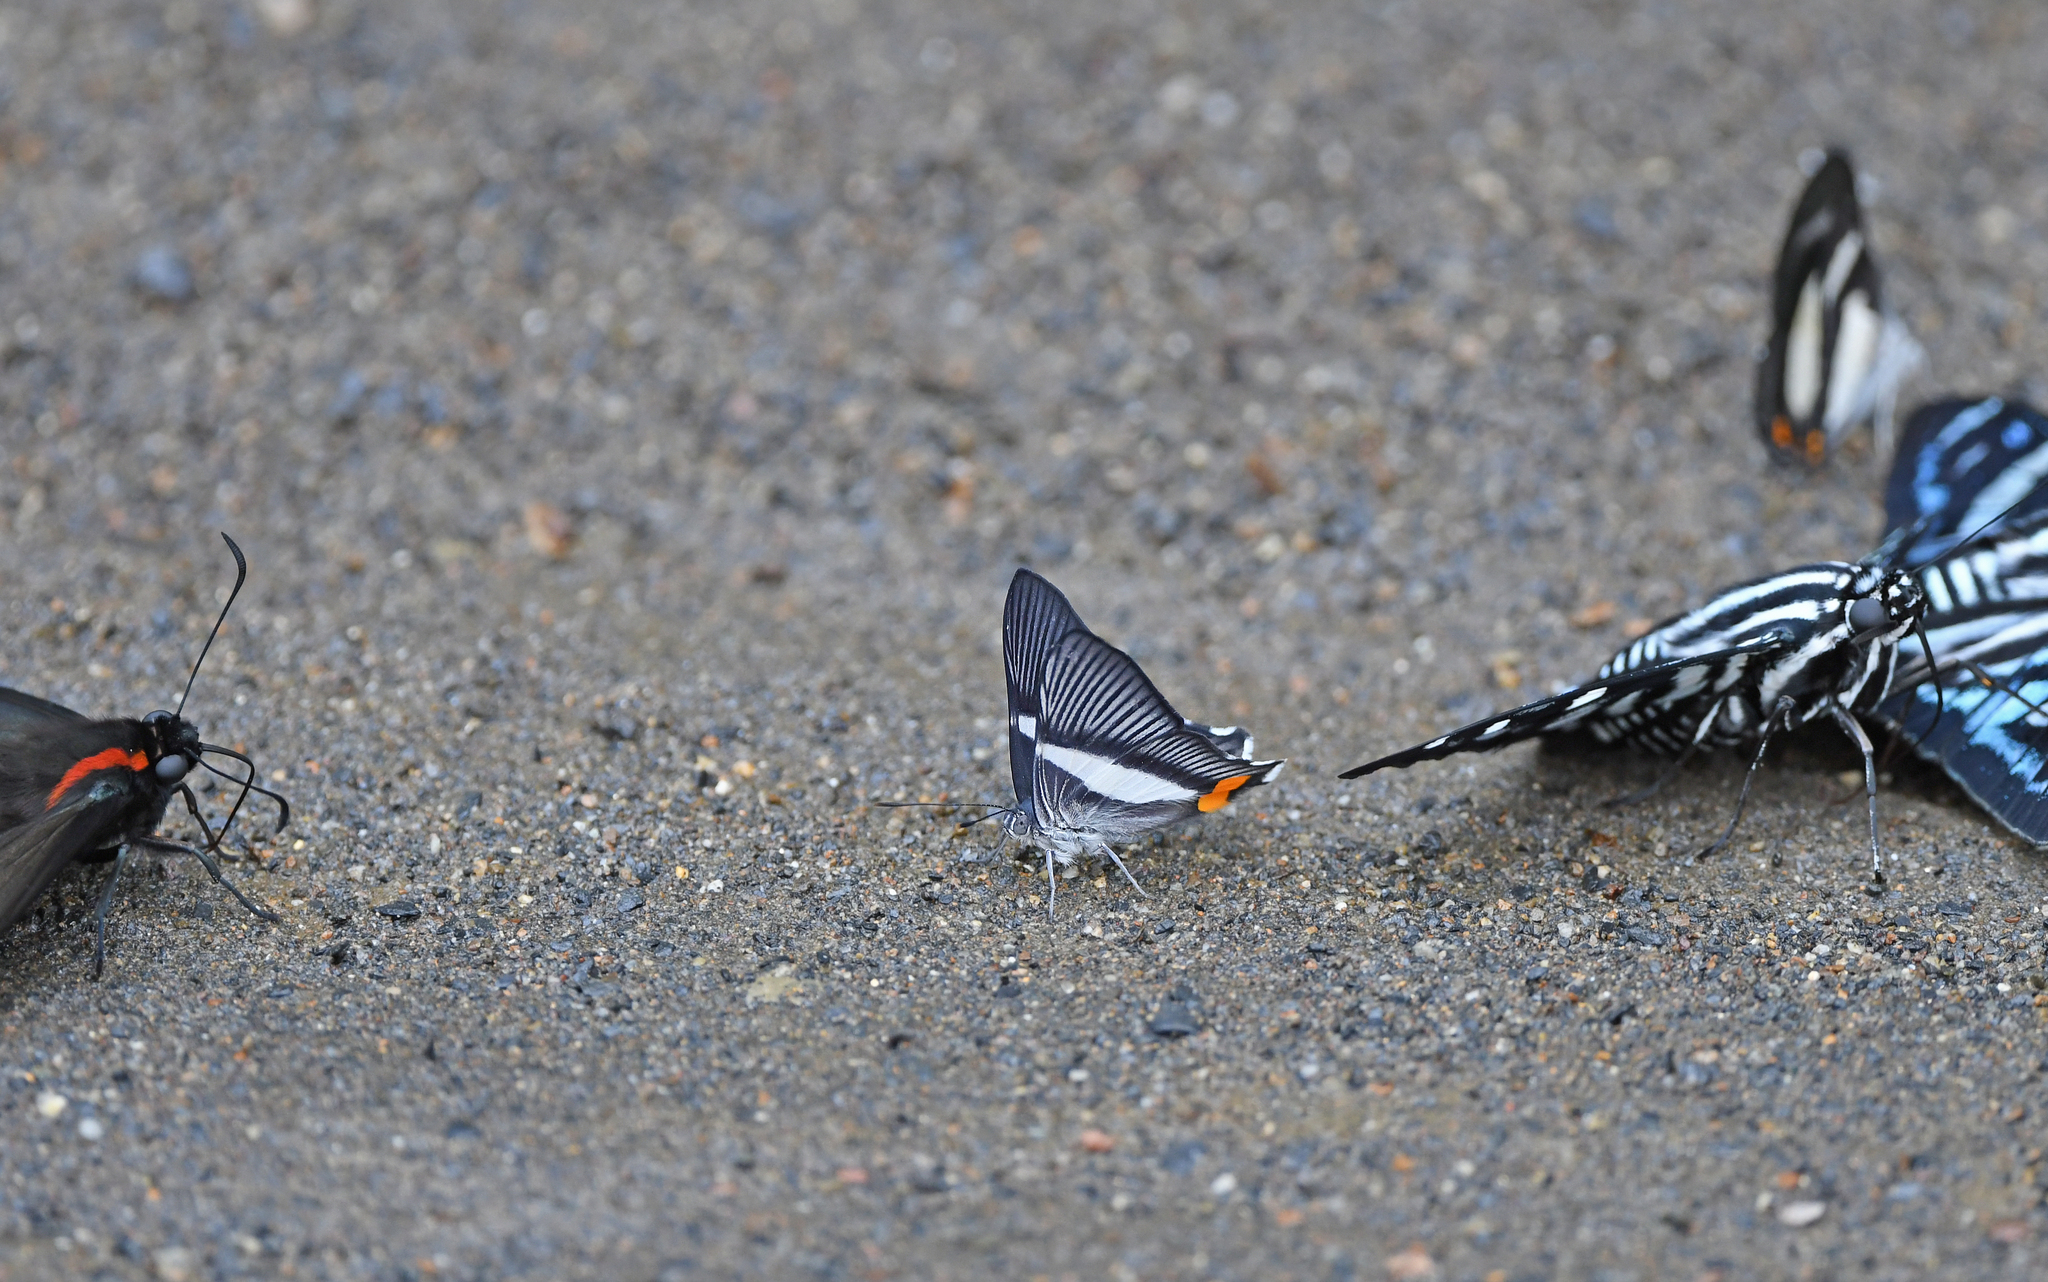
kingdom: Animalia
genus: Siseme
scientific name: Siseme neurodes
